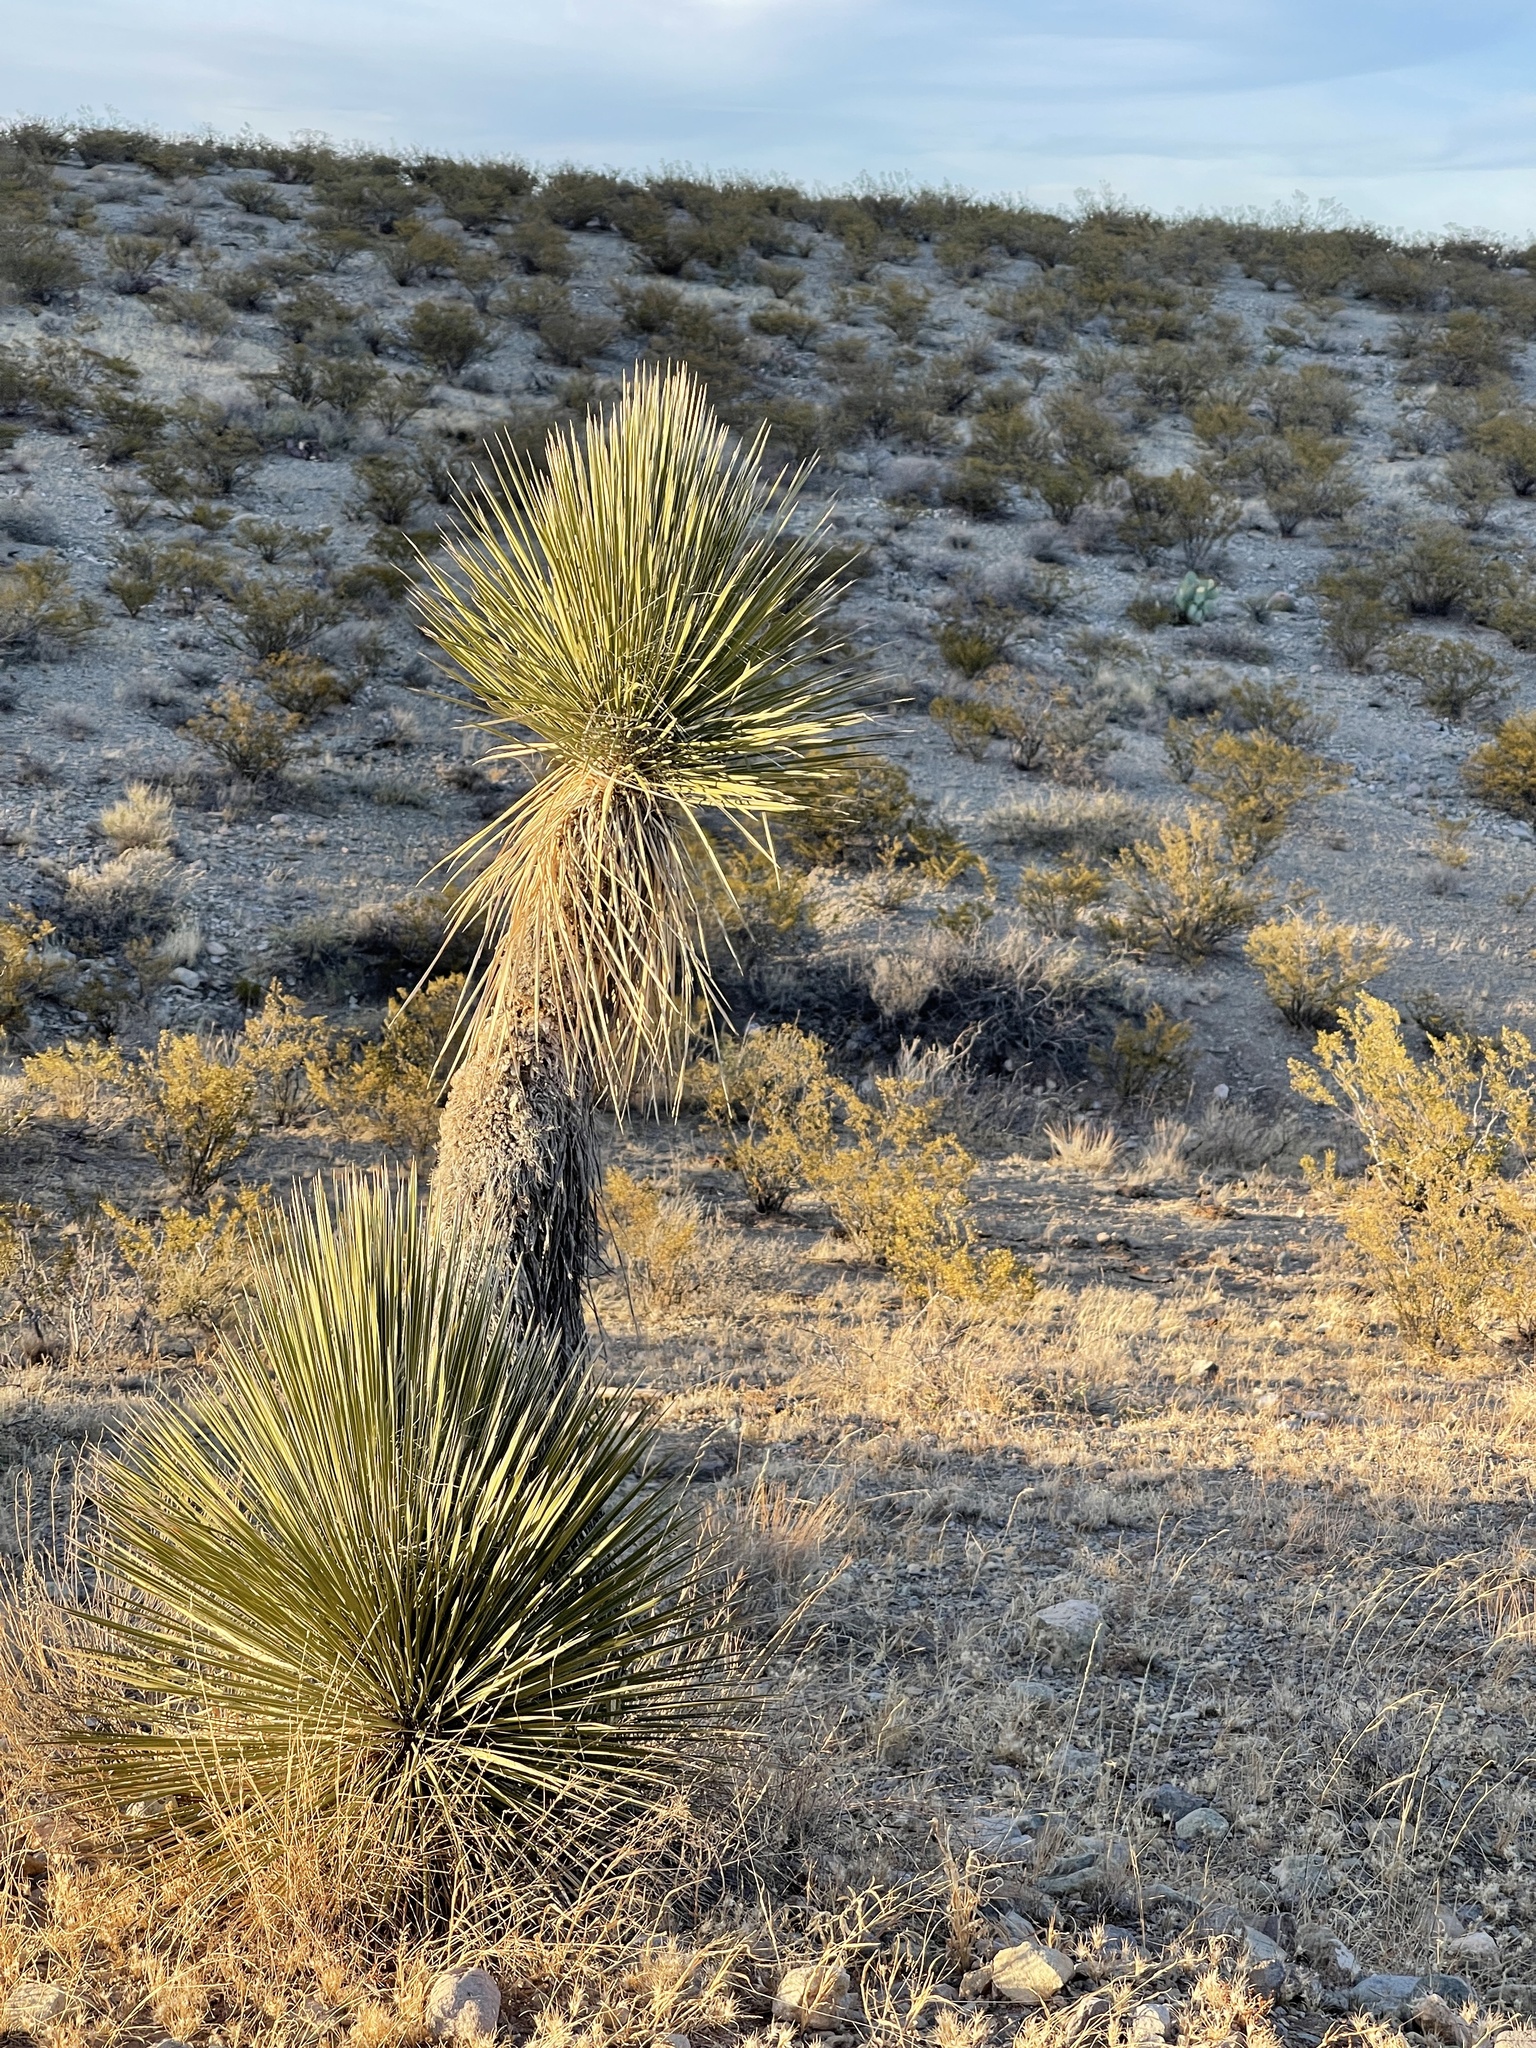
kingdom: Plantae
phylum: Tracheophyta
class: Liliopsida
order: Asparagales
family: Asparagaceae
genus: Yucca
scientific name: Yucca elata
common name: Palmella
